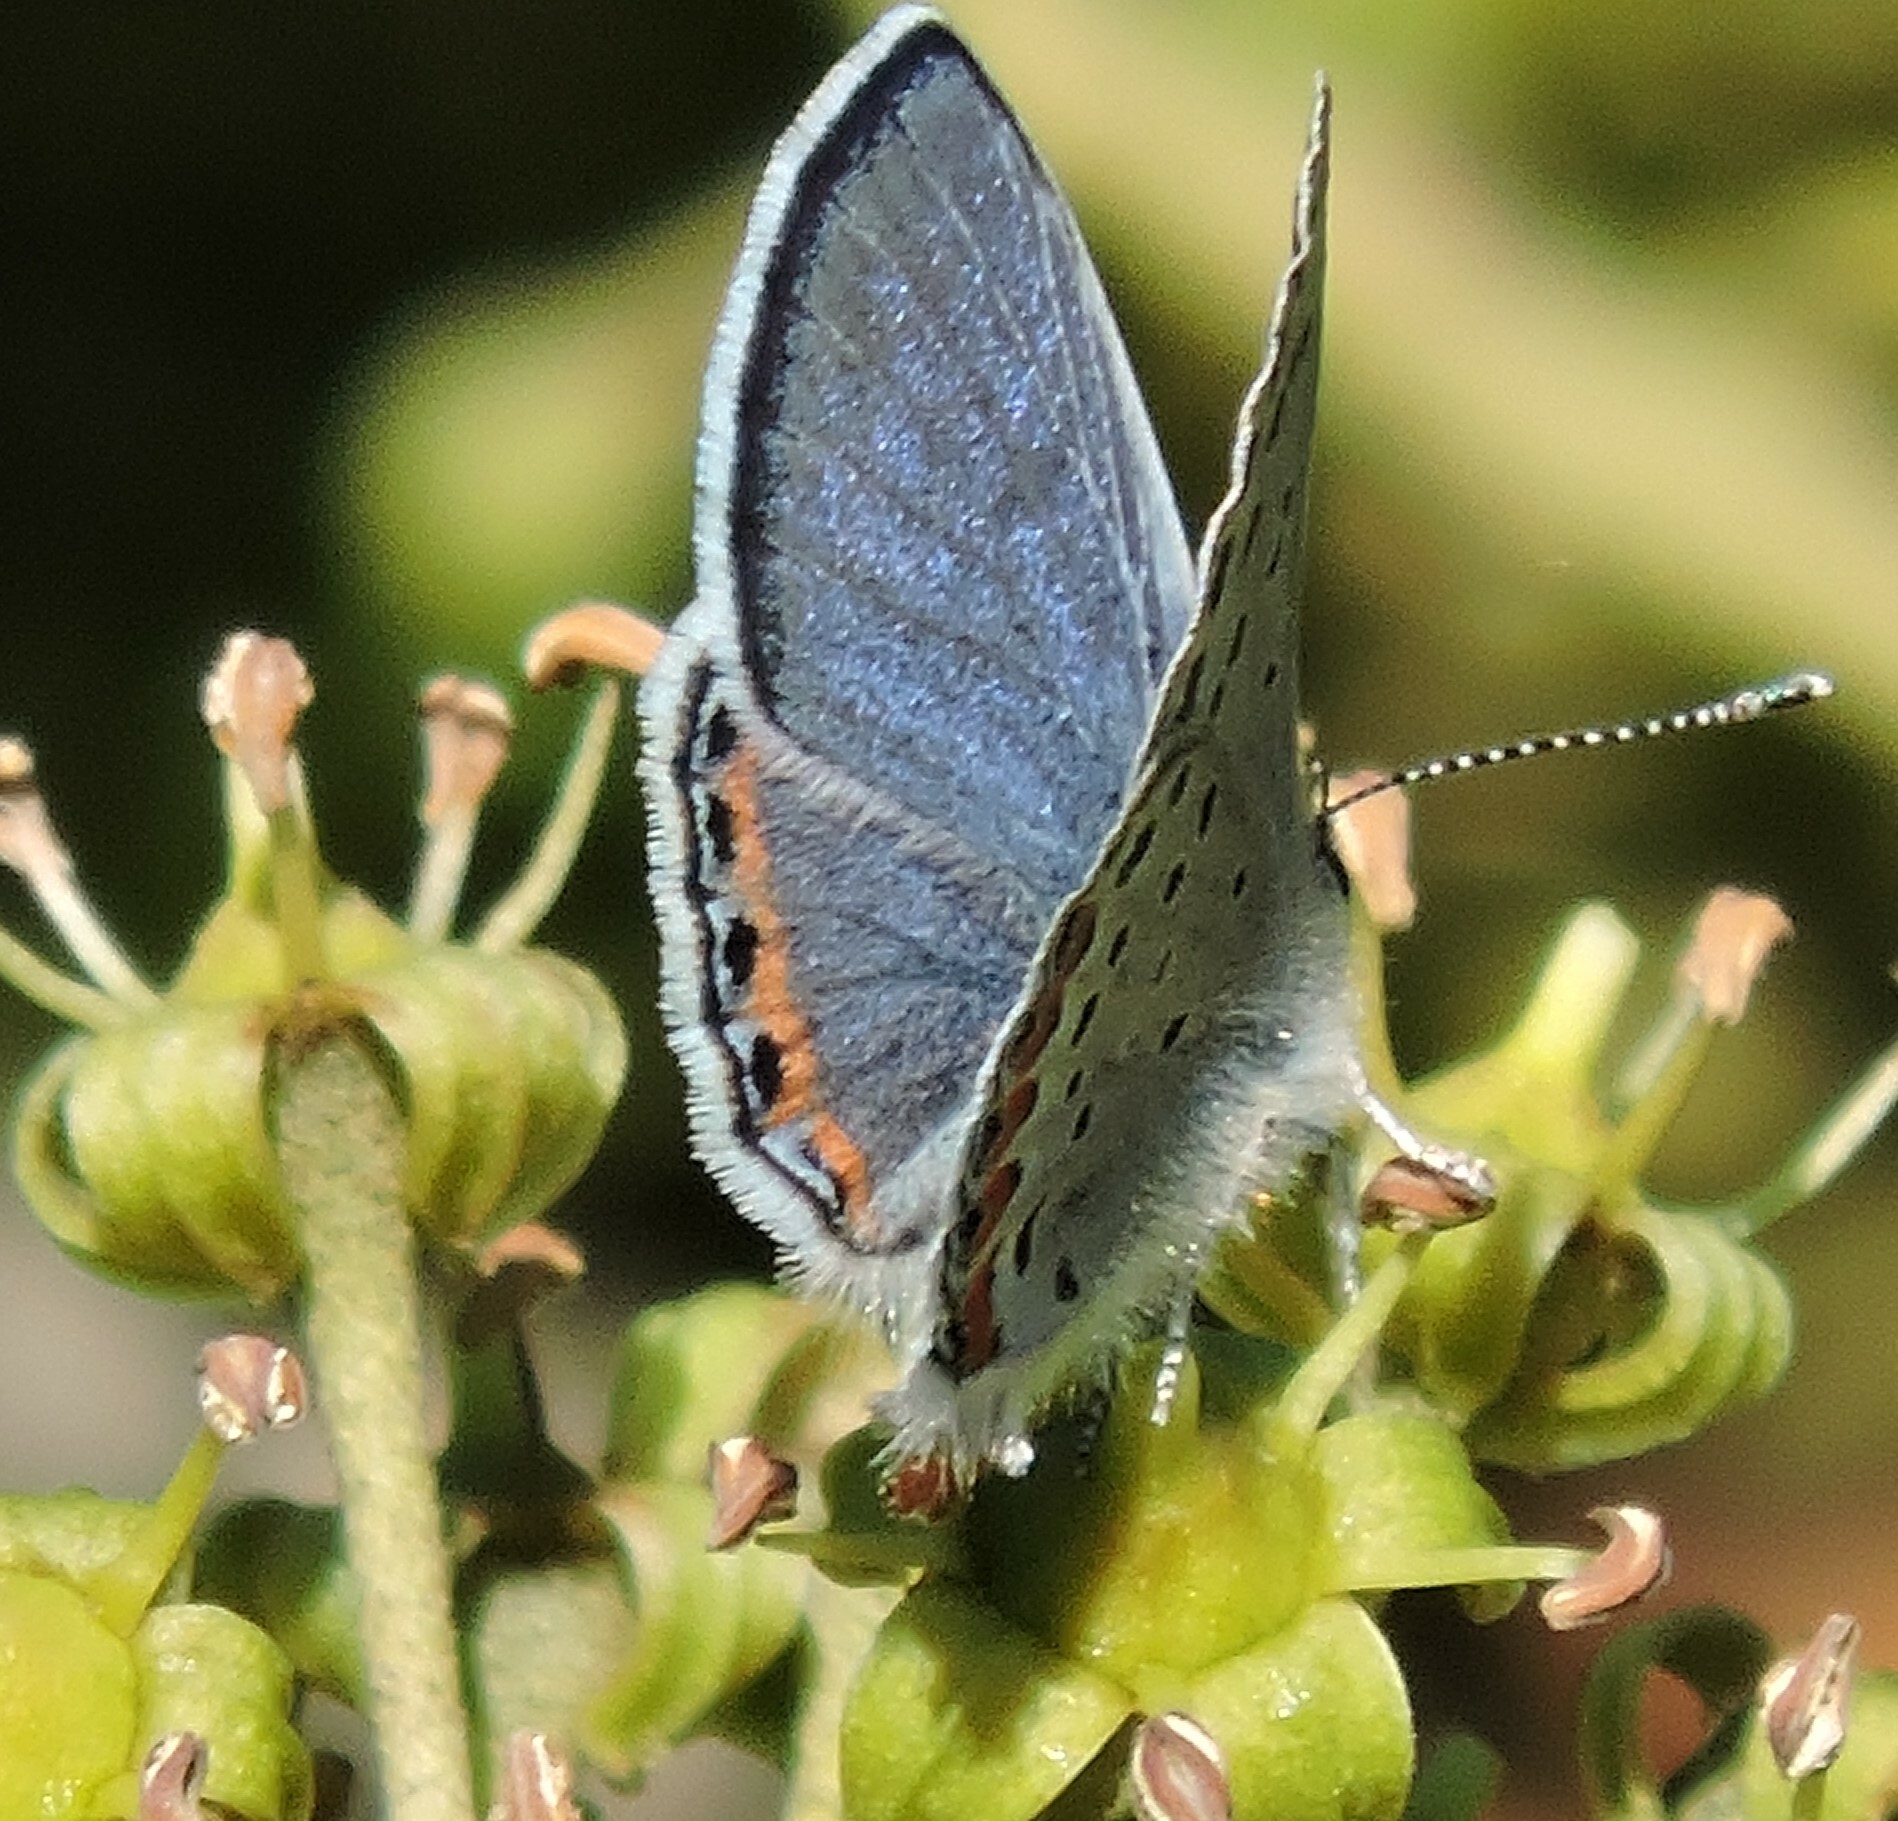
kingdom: Animalia
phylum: Arthropoda
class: Insecta
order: Lepidoptera
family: Lycaenidae
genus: Icaricia
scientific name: Icaricia acmon
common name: Acmon blue
